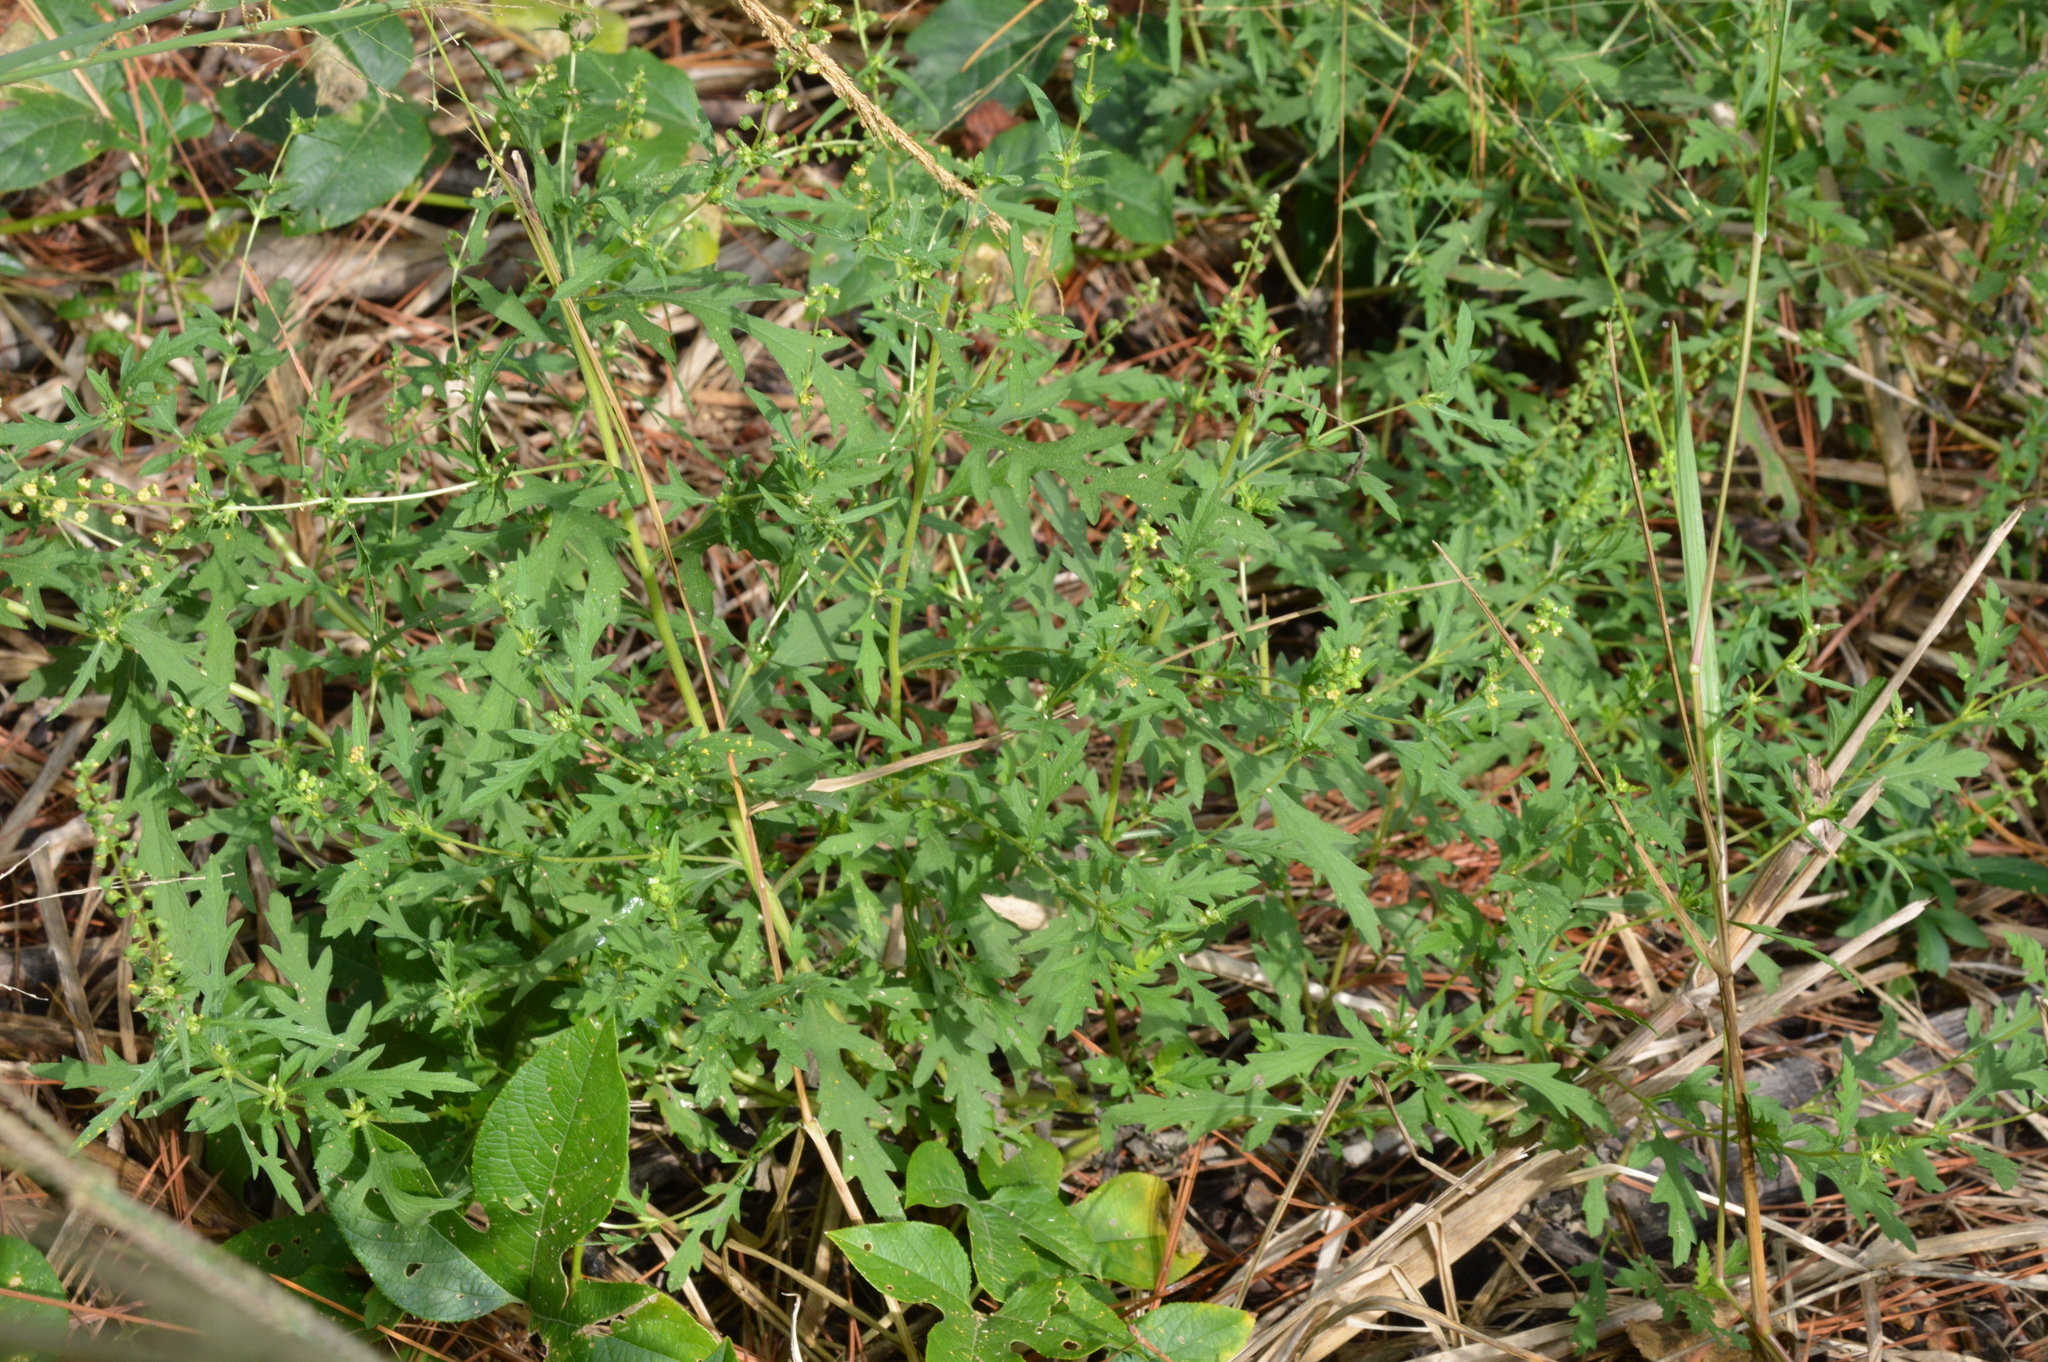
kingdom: Plantae
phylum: Tracheophyta
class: Magnoliopsida
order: Asterales
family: Asteraceae
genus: Ambrosia
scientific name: Ambrosia psilostachya
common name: Perennial ragweed
